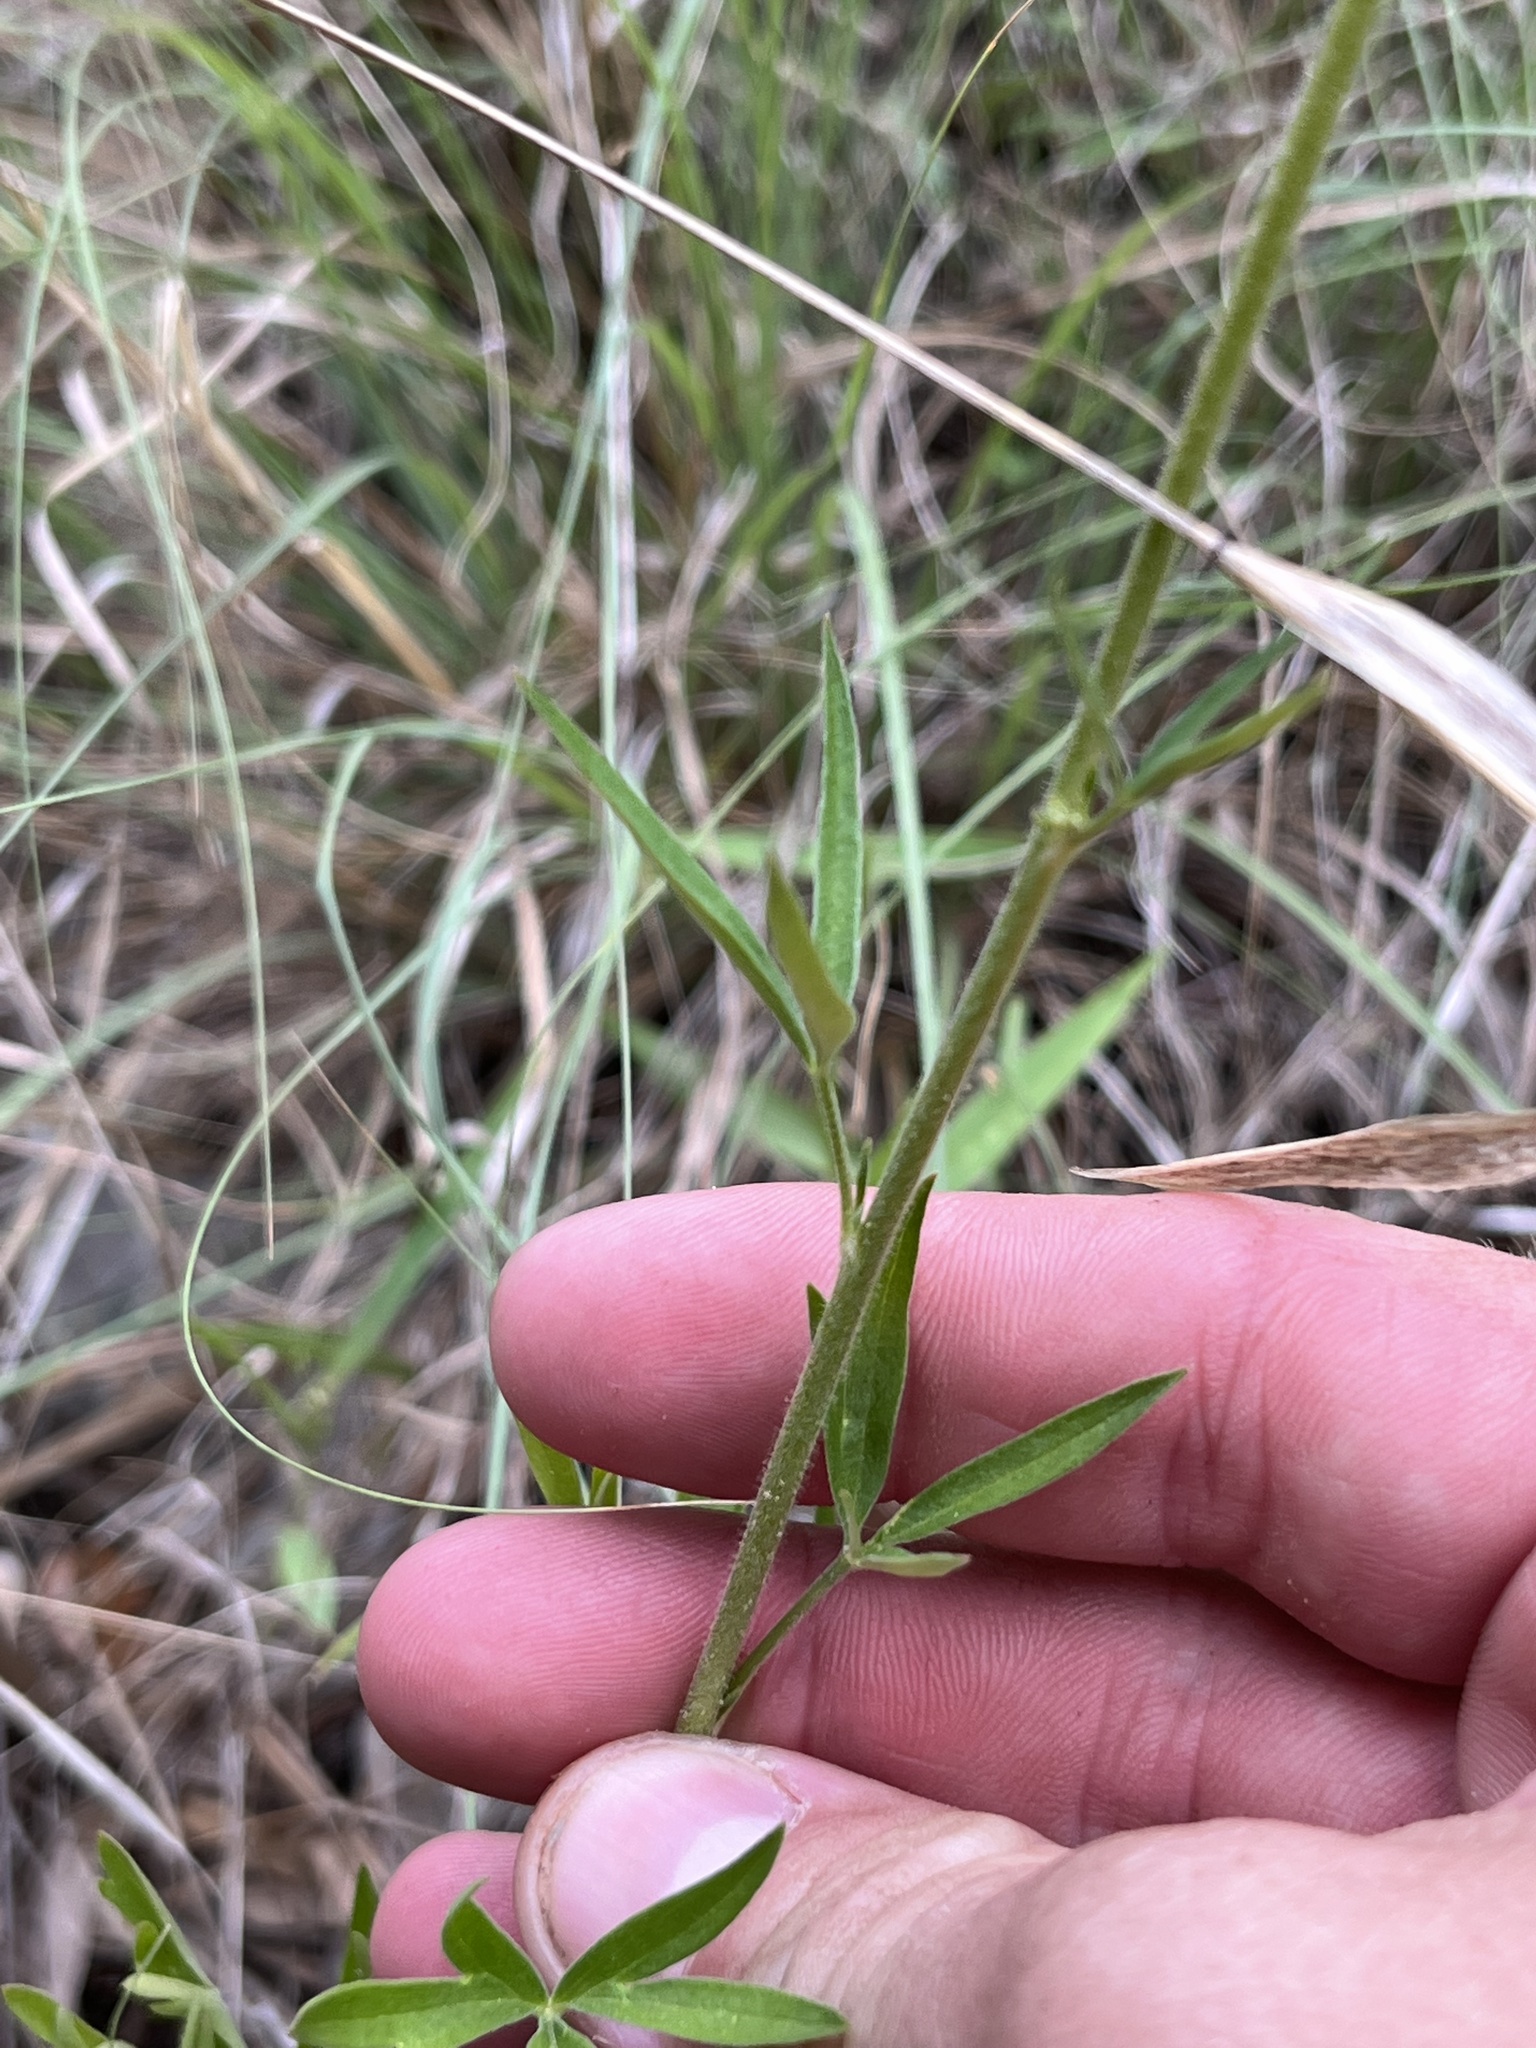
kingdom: Plantae
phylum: Tracheophyta
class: Magnoliopsida
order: Ranunculales
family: Ranunculaceae
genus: Delphinium
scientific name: Delphinium carolinianum
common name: Carolina larkspur
